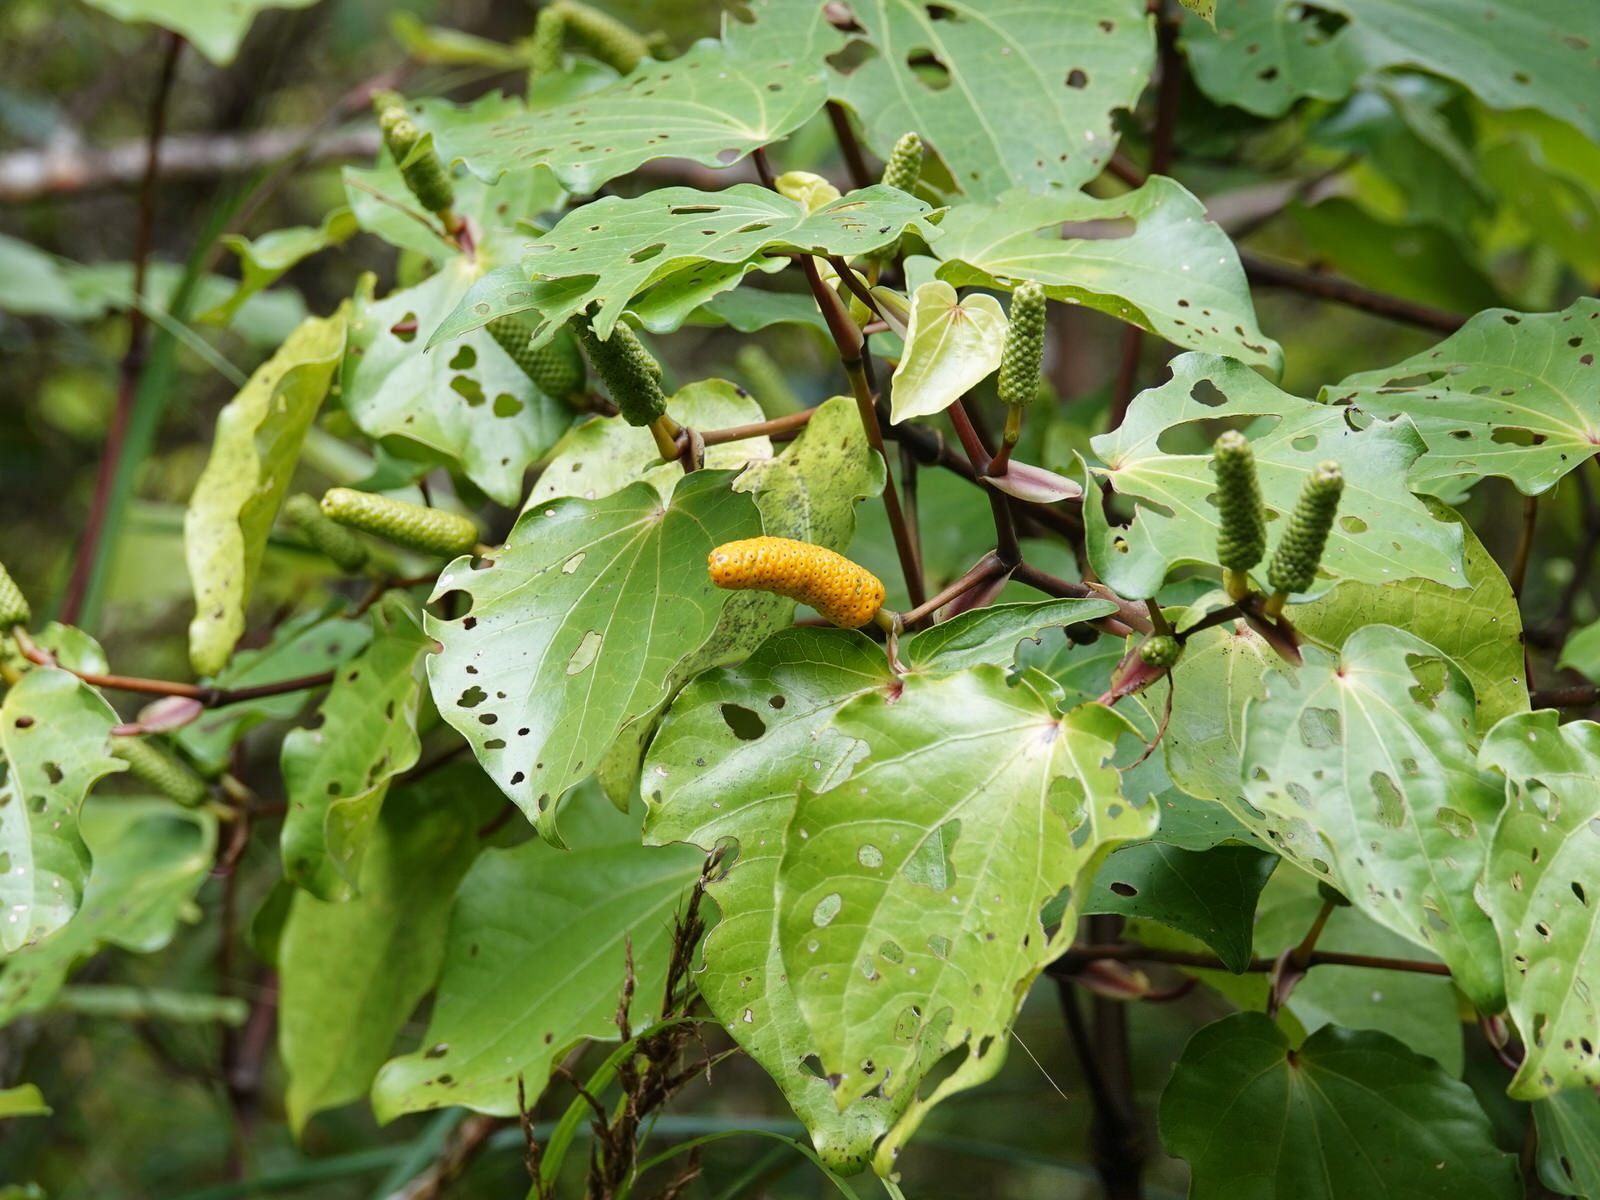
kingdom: Plantae
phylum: Tracheophyta
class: Magnoliopsida
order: Piperales
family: Piperaceae
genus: Macropiper
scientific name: Macropiper excelsum
